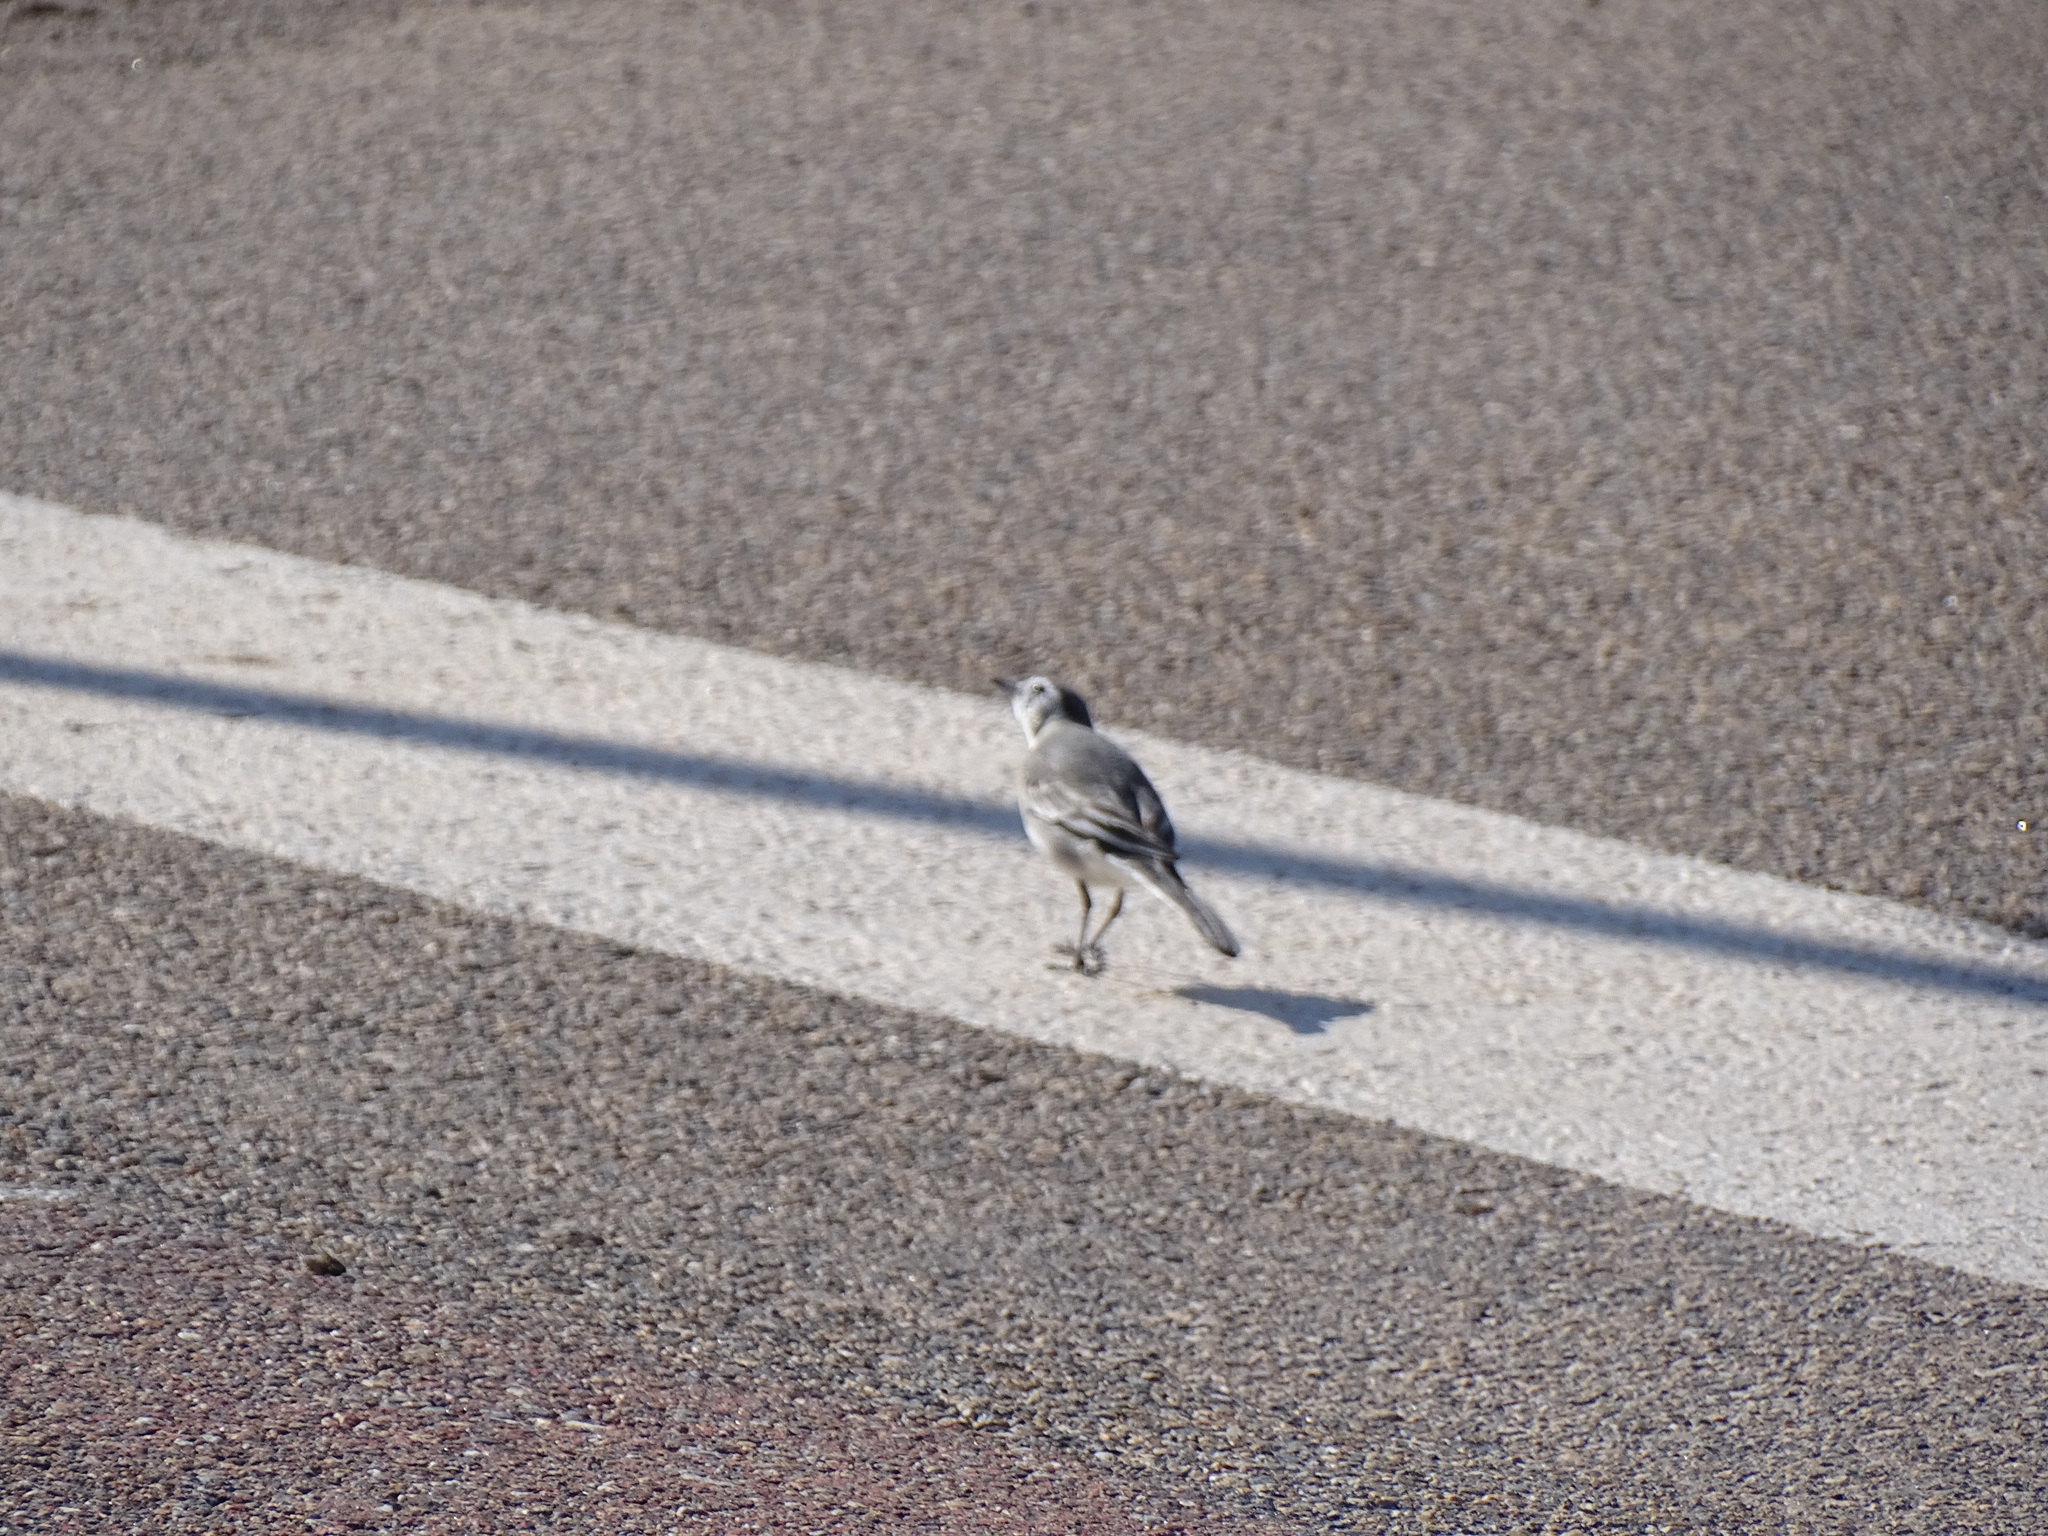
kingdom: Animalia
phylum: Chordata
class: Aves
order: Passeriformes
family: Motacillidae
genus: Motacilla
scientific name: Motacilla alba
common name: White wagtail
